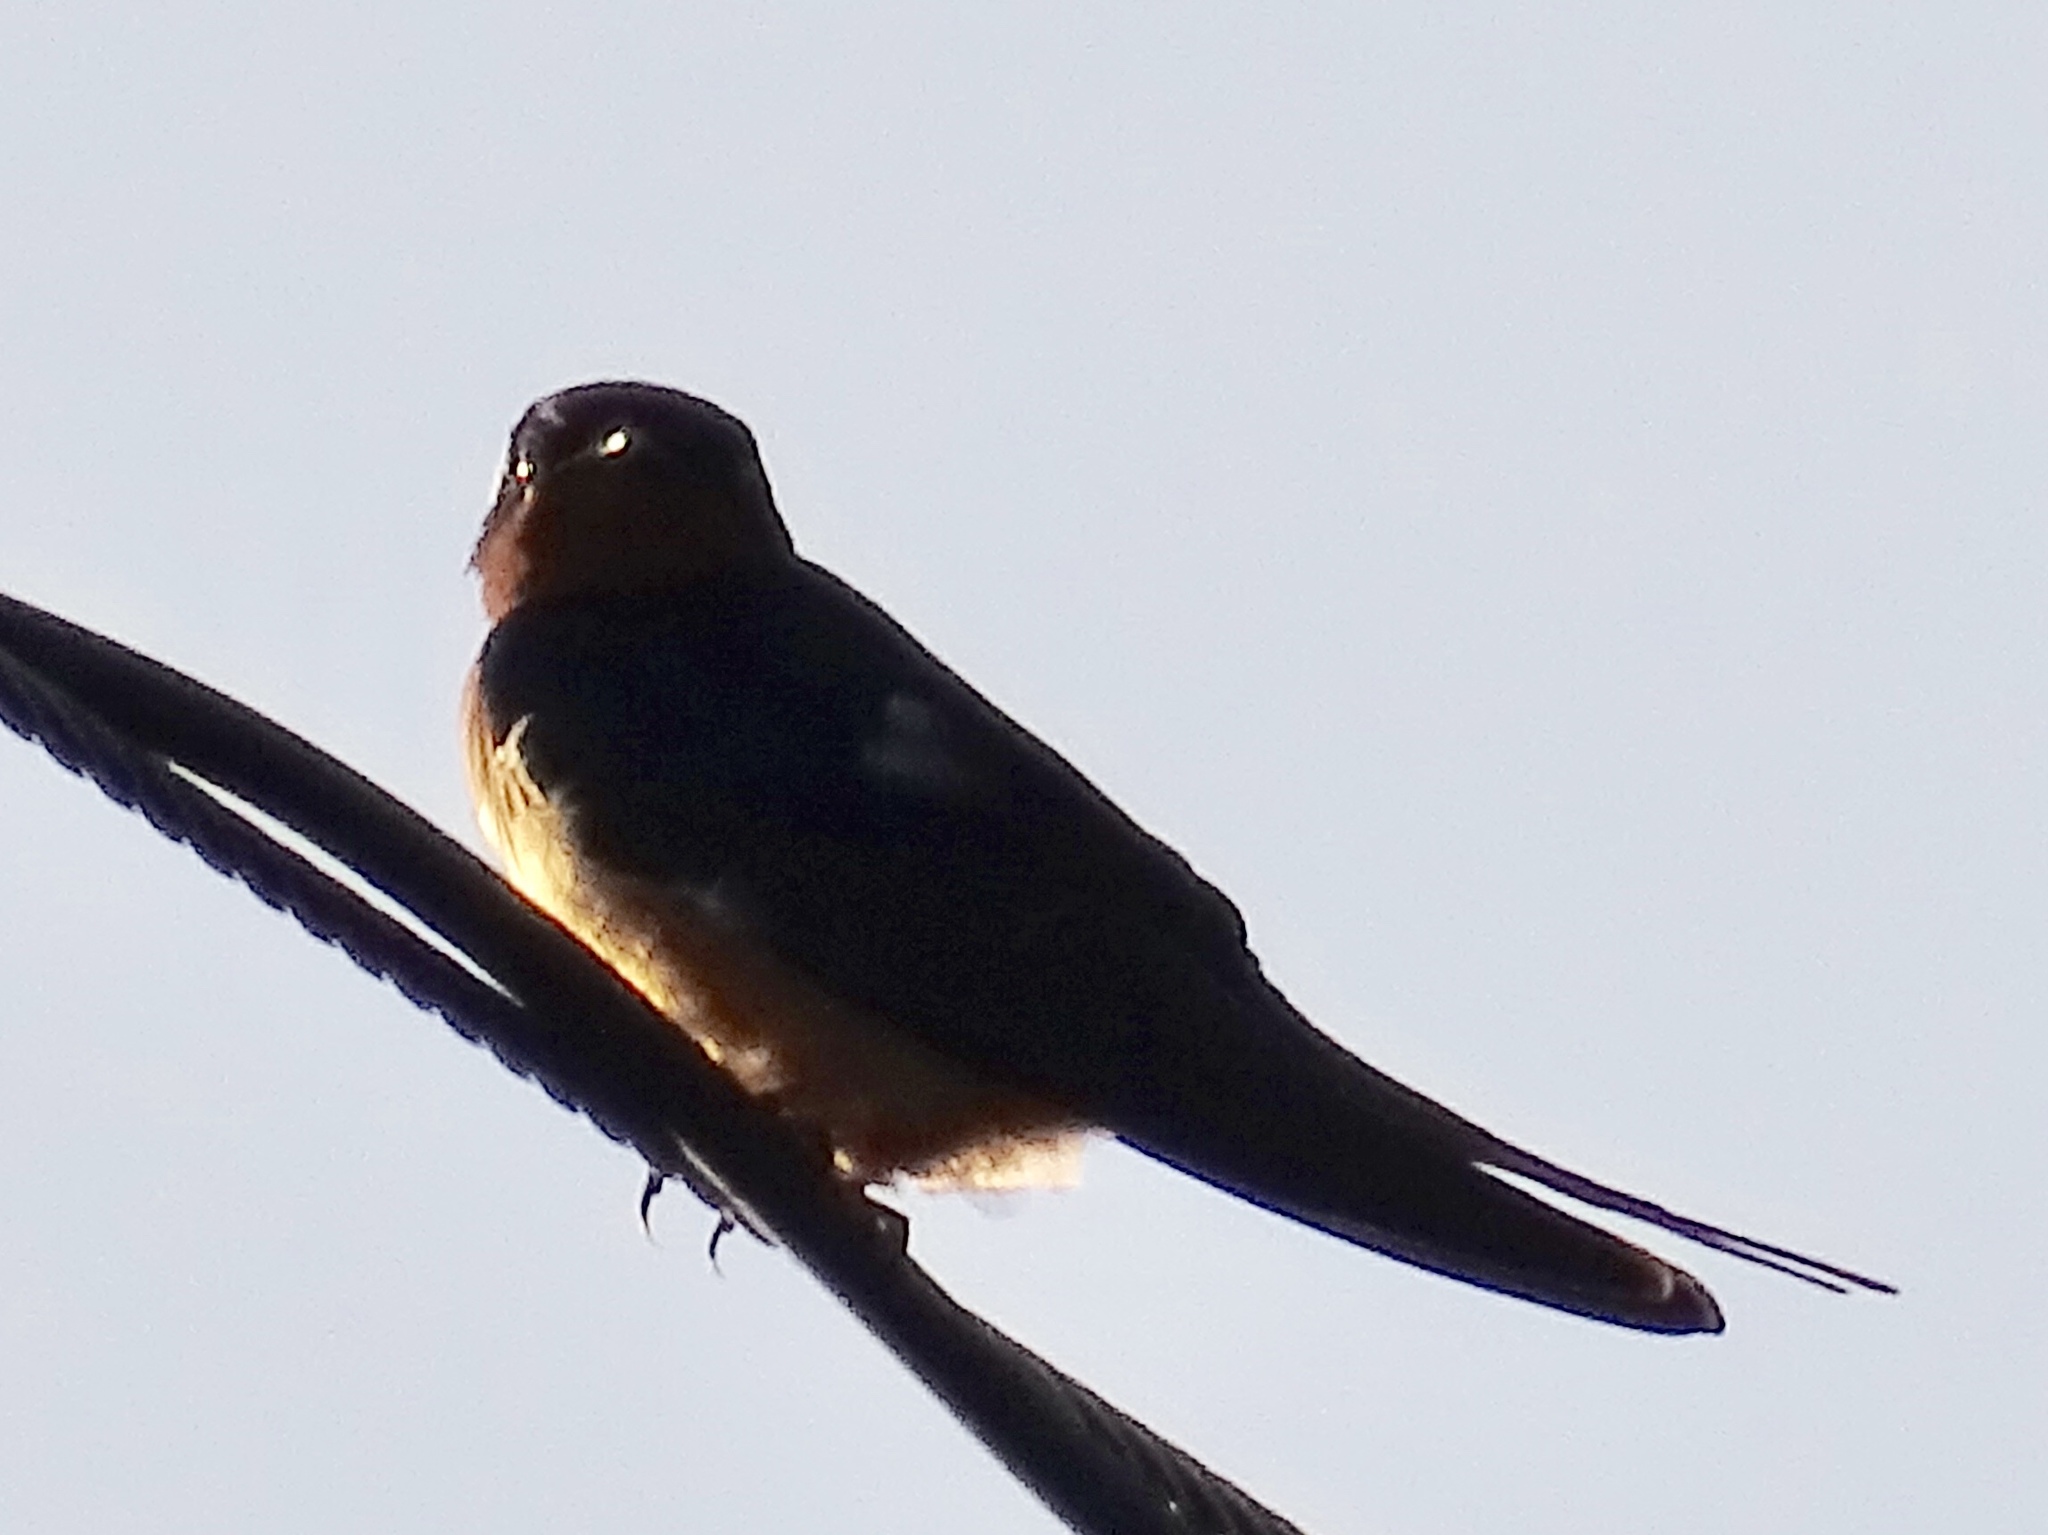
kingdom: Animalia
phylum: Chordata
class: Aves
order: Passeriformes
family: Hirundinidae
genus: Hirundo
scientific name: Hirundo rustica
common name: Barn swallow
